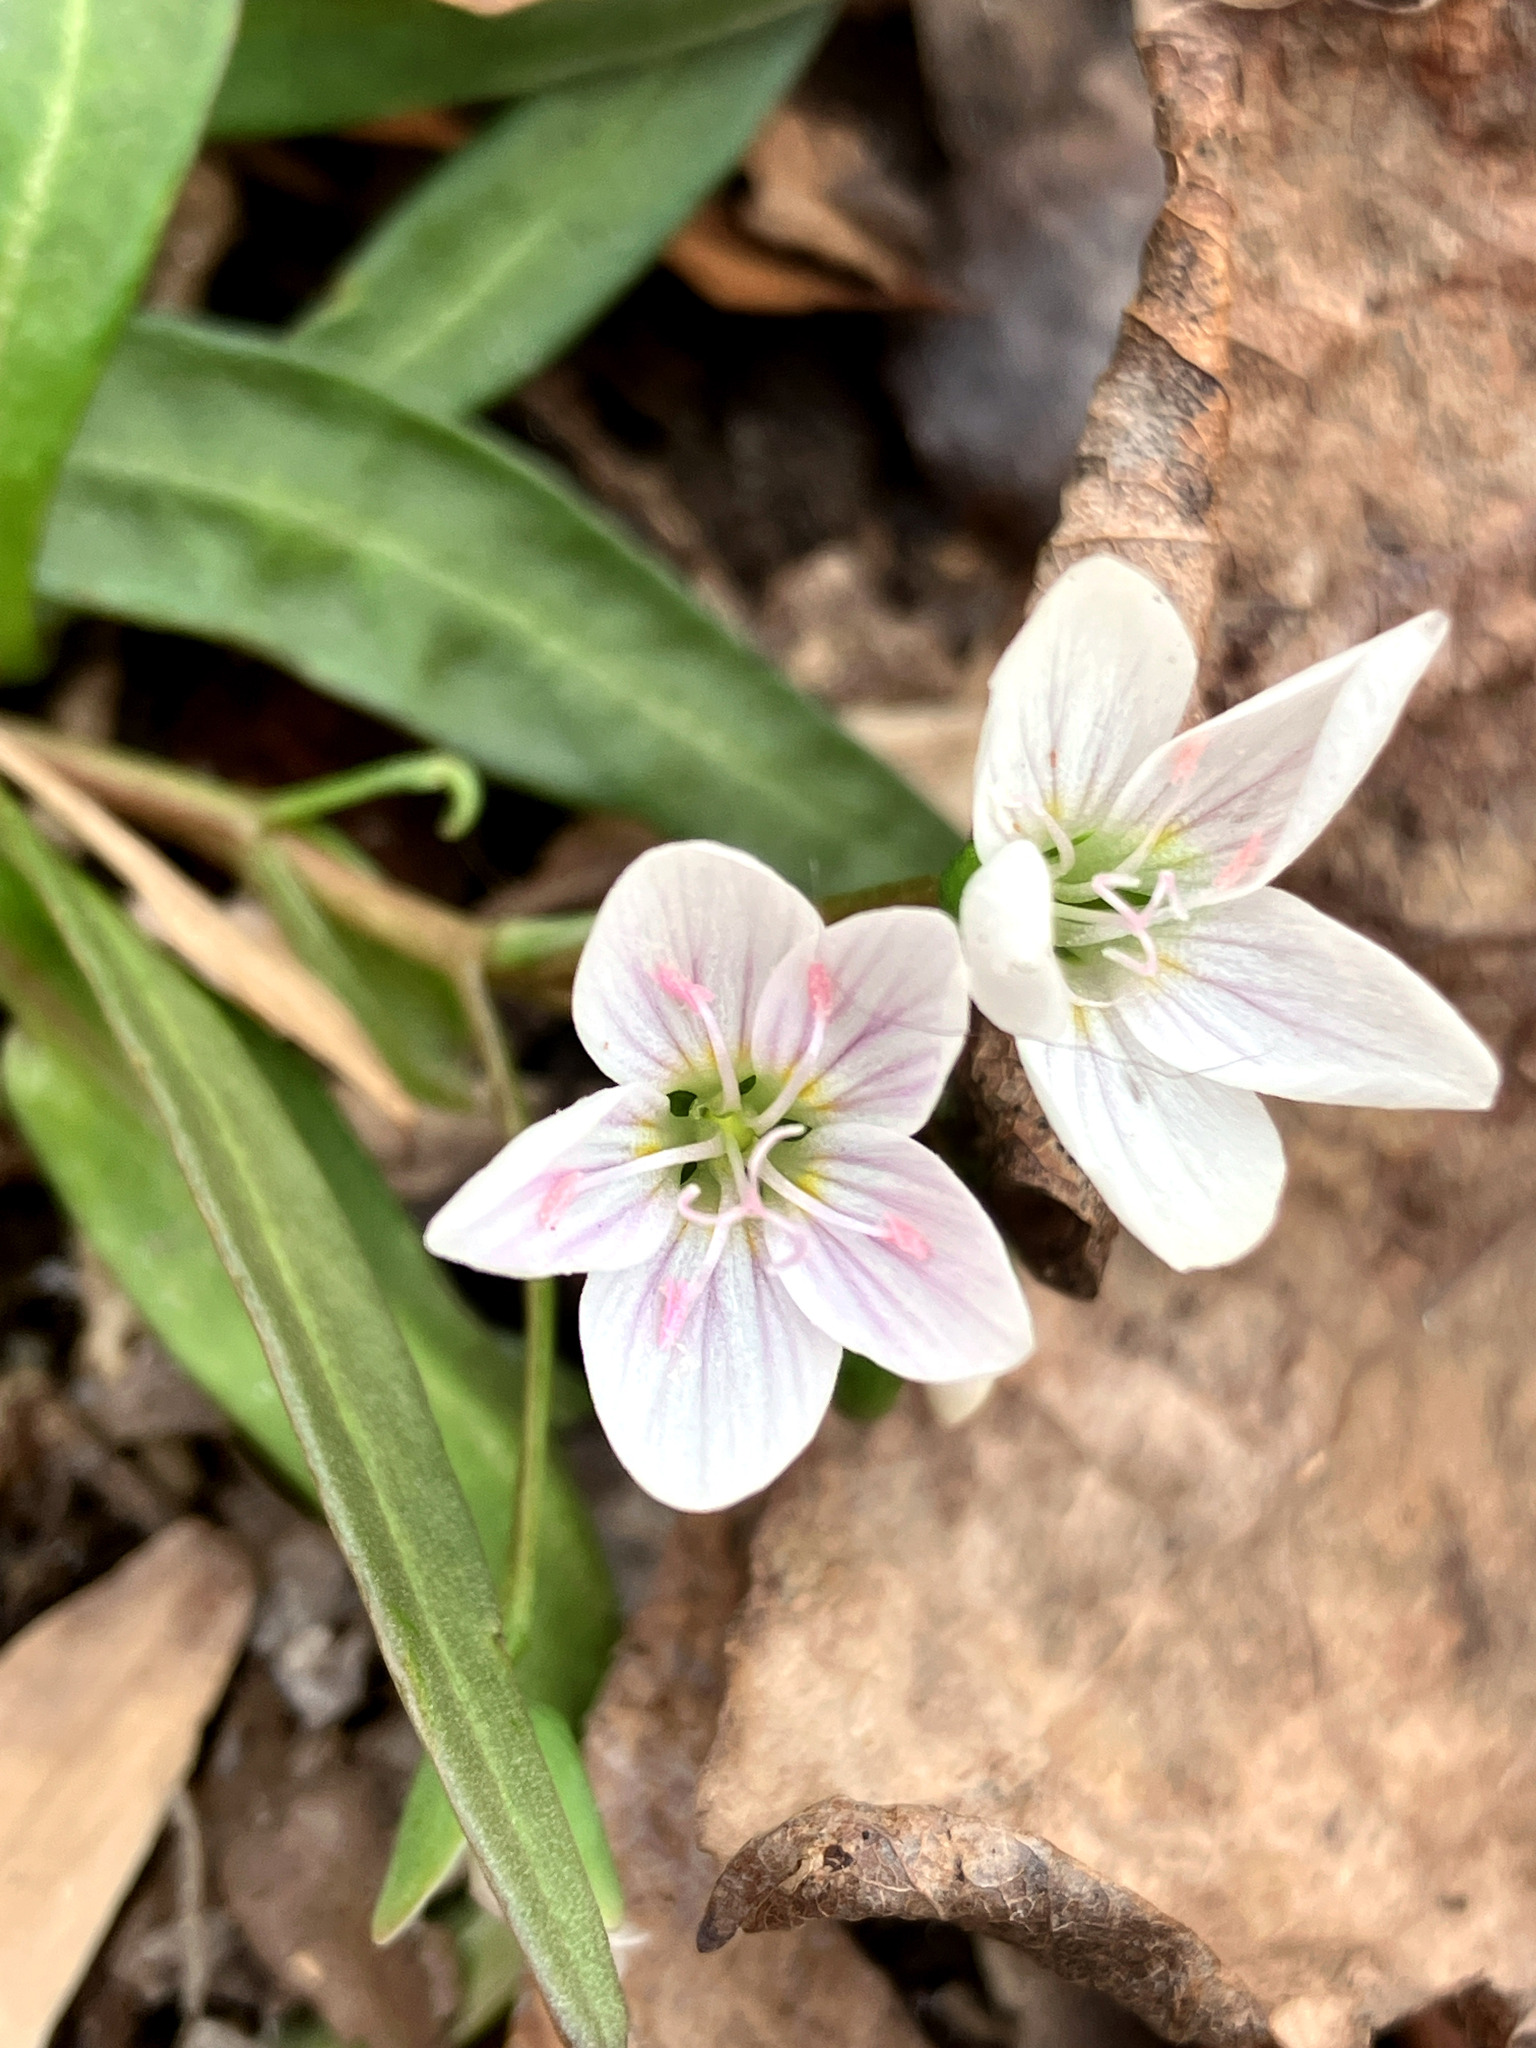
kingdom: Plantae
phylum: Tracheophyta
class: Magnoliopsida
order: Caryophyllales
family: Montiaceae
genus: Claytonia
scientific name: Claytonia virginica
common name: Virginia springbeauty
